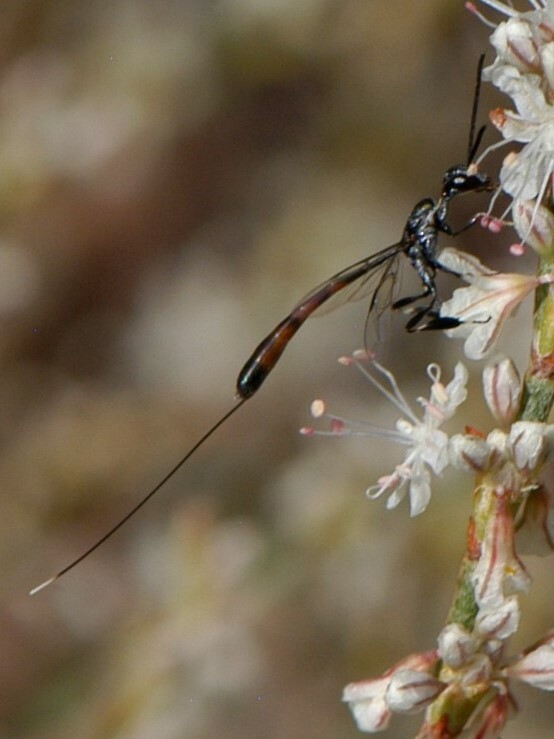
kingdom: Animalia
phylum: Arthropoda
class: Insecta
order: Hymenoptera
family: Gasteruptiidae
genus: Gasteruption
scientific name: Gasteruption
